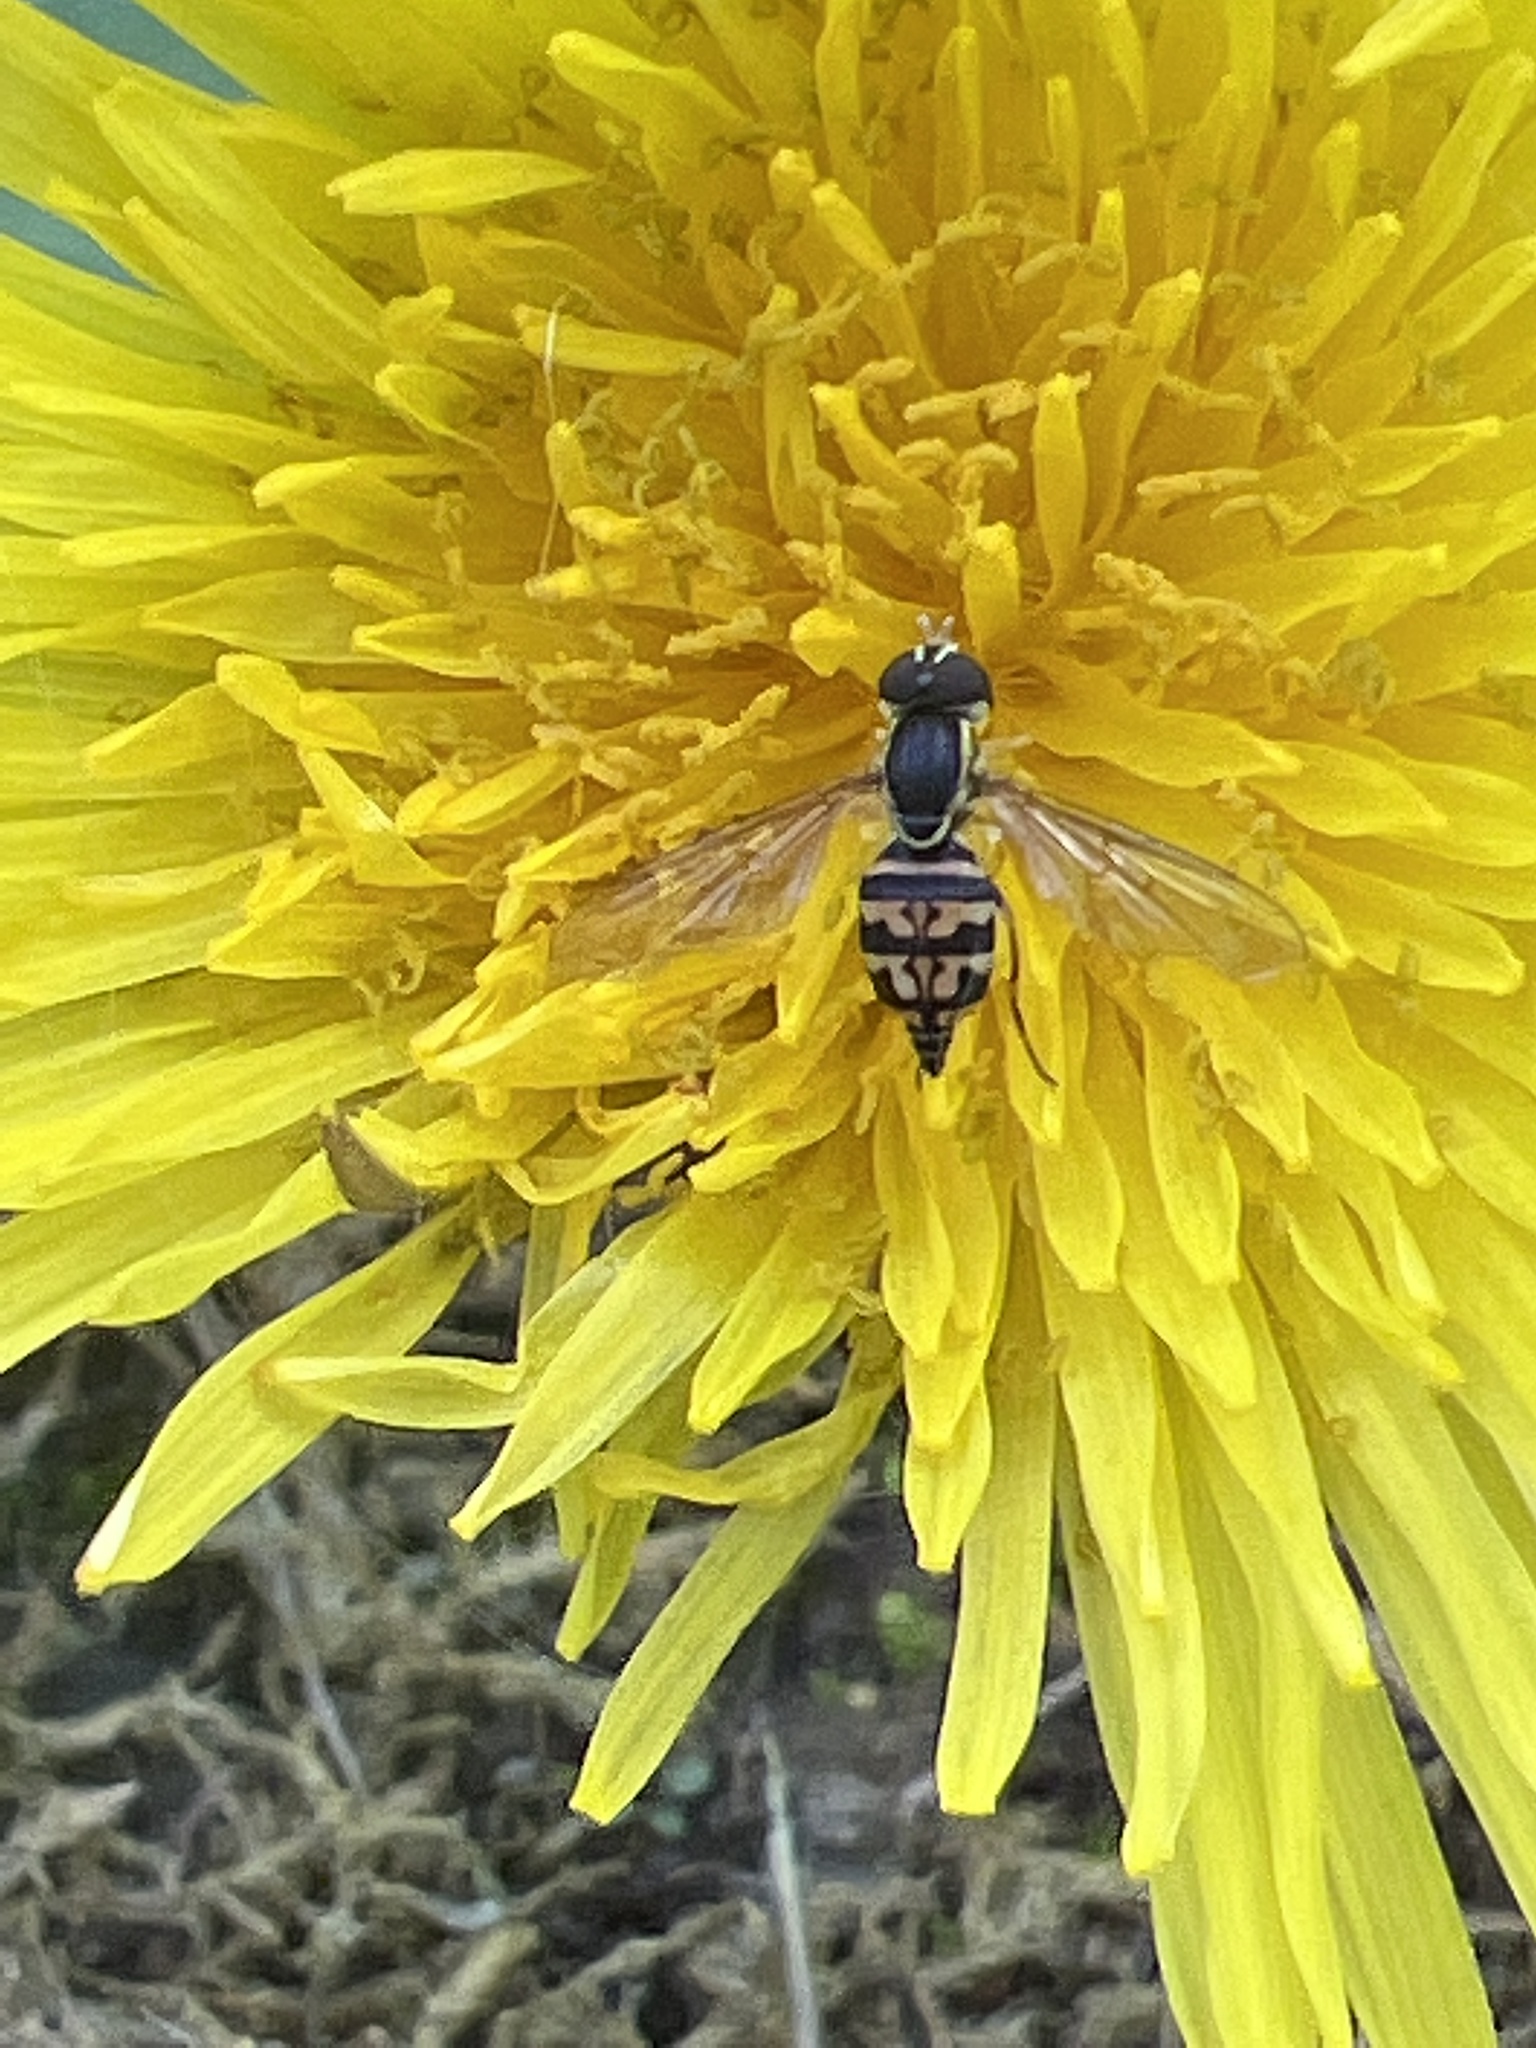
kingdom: Animalia
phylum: Arthropoda
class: Insecta
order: Diptera
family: Syrphidae
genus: Toxomerus
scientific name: Toxomerus geminatus
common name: Eastern calligrapher
